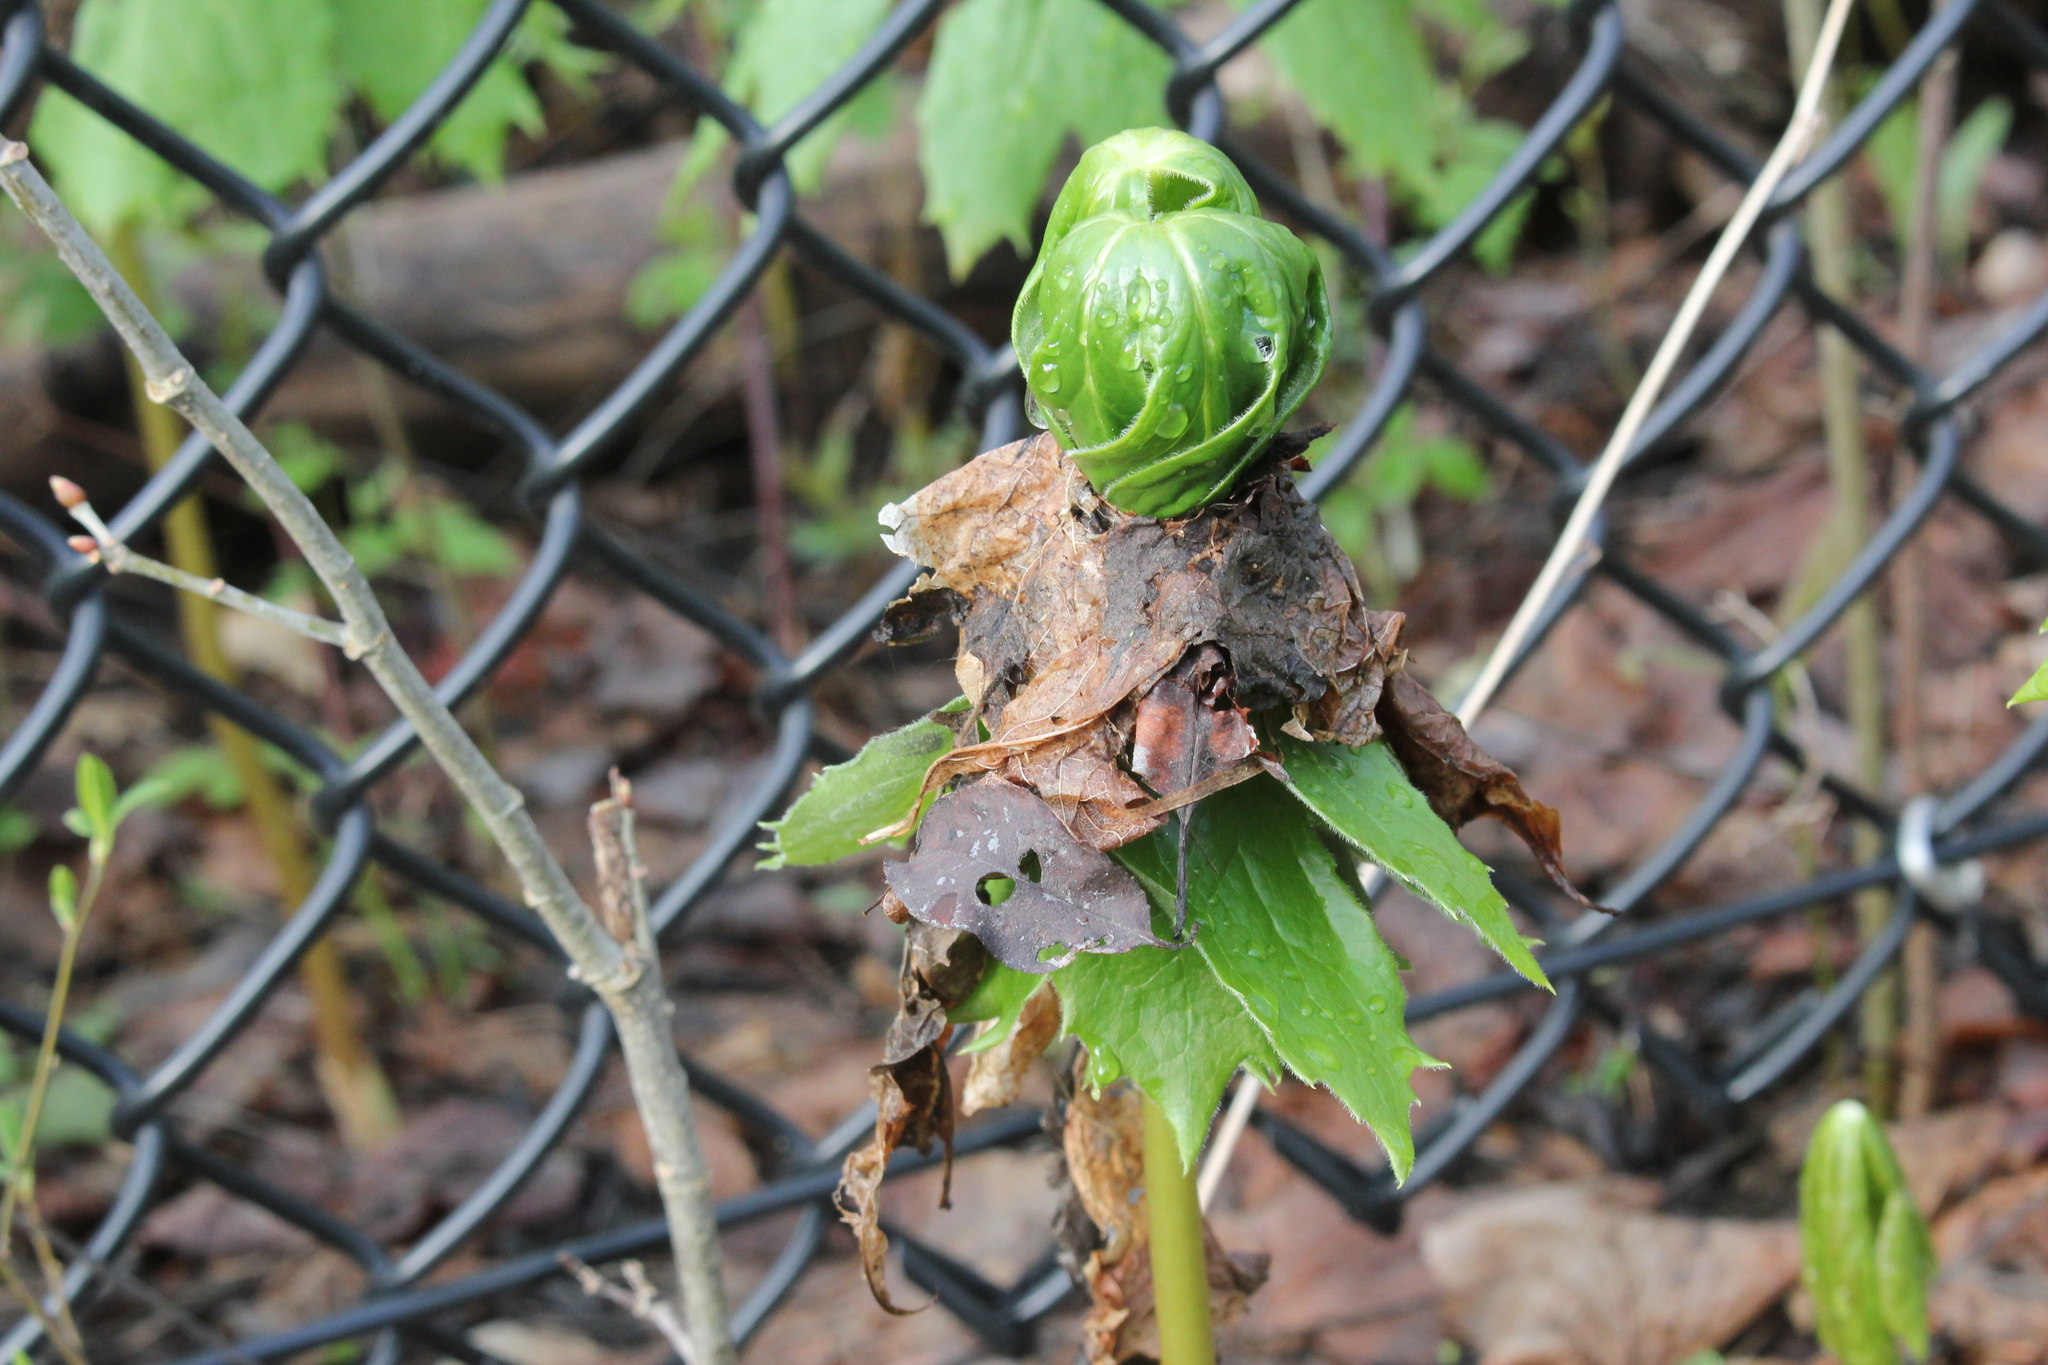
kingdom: Plantae
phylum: Tracheophyta
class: Magnoliopsida
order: Ranunculales
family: Berberidaceae
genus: Podophyllum
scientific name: Podophyllum peltatum
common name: Wild mandrake
